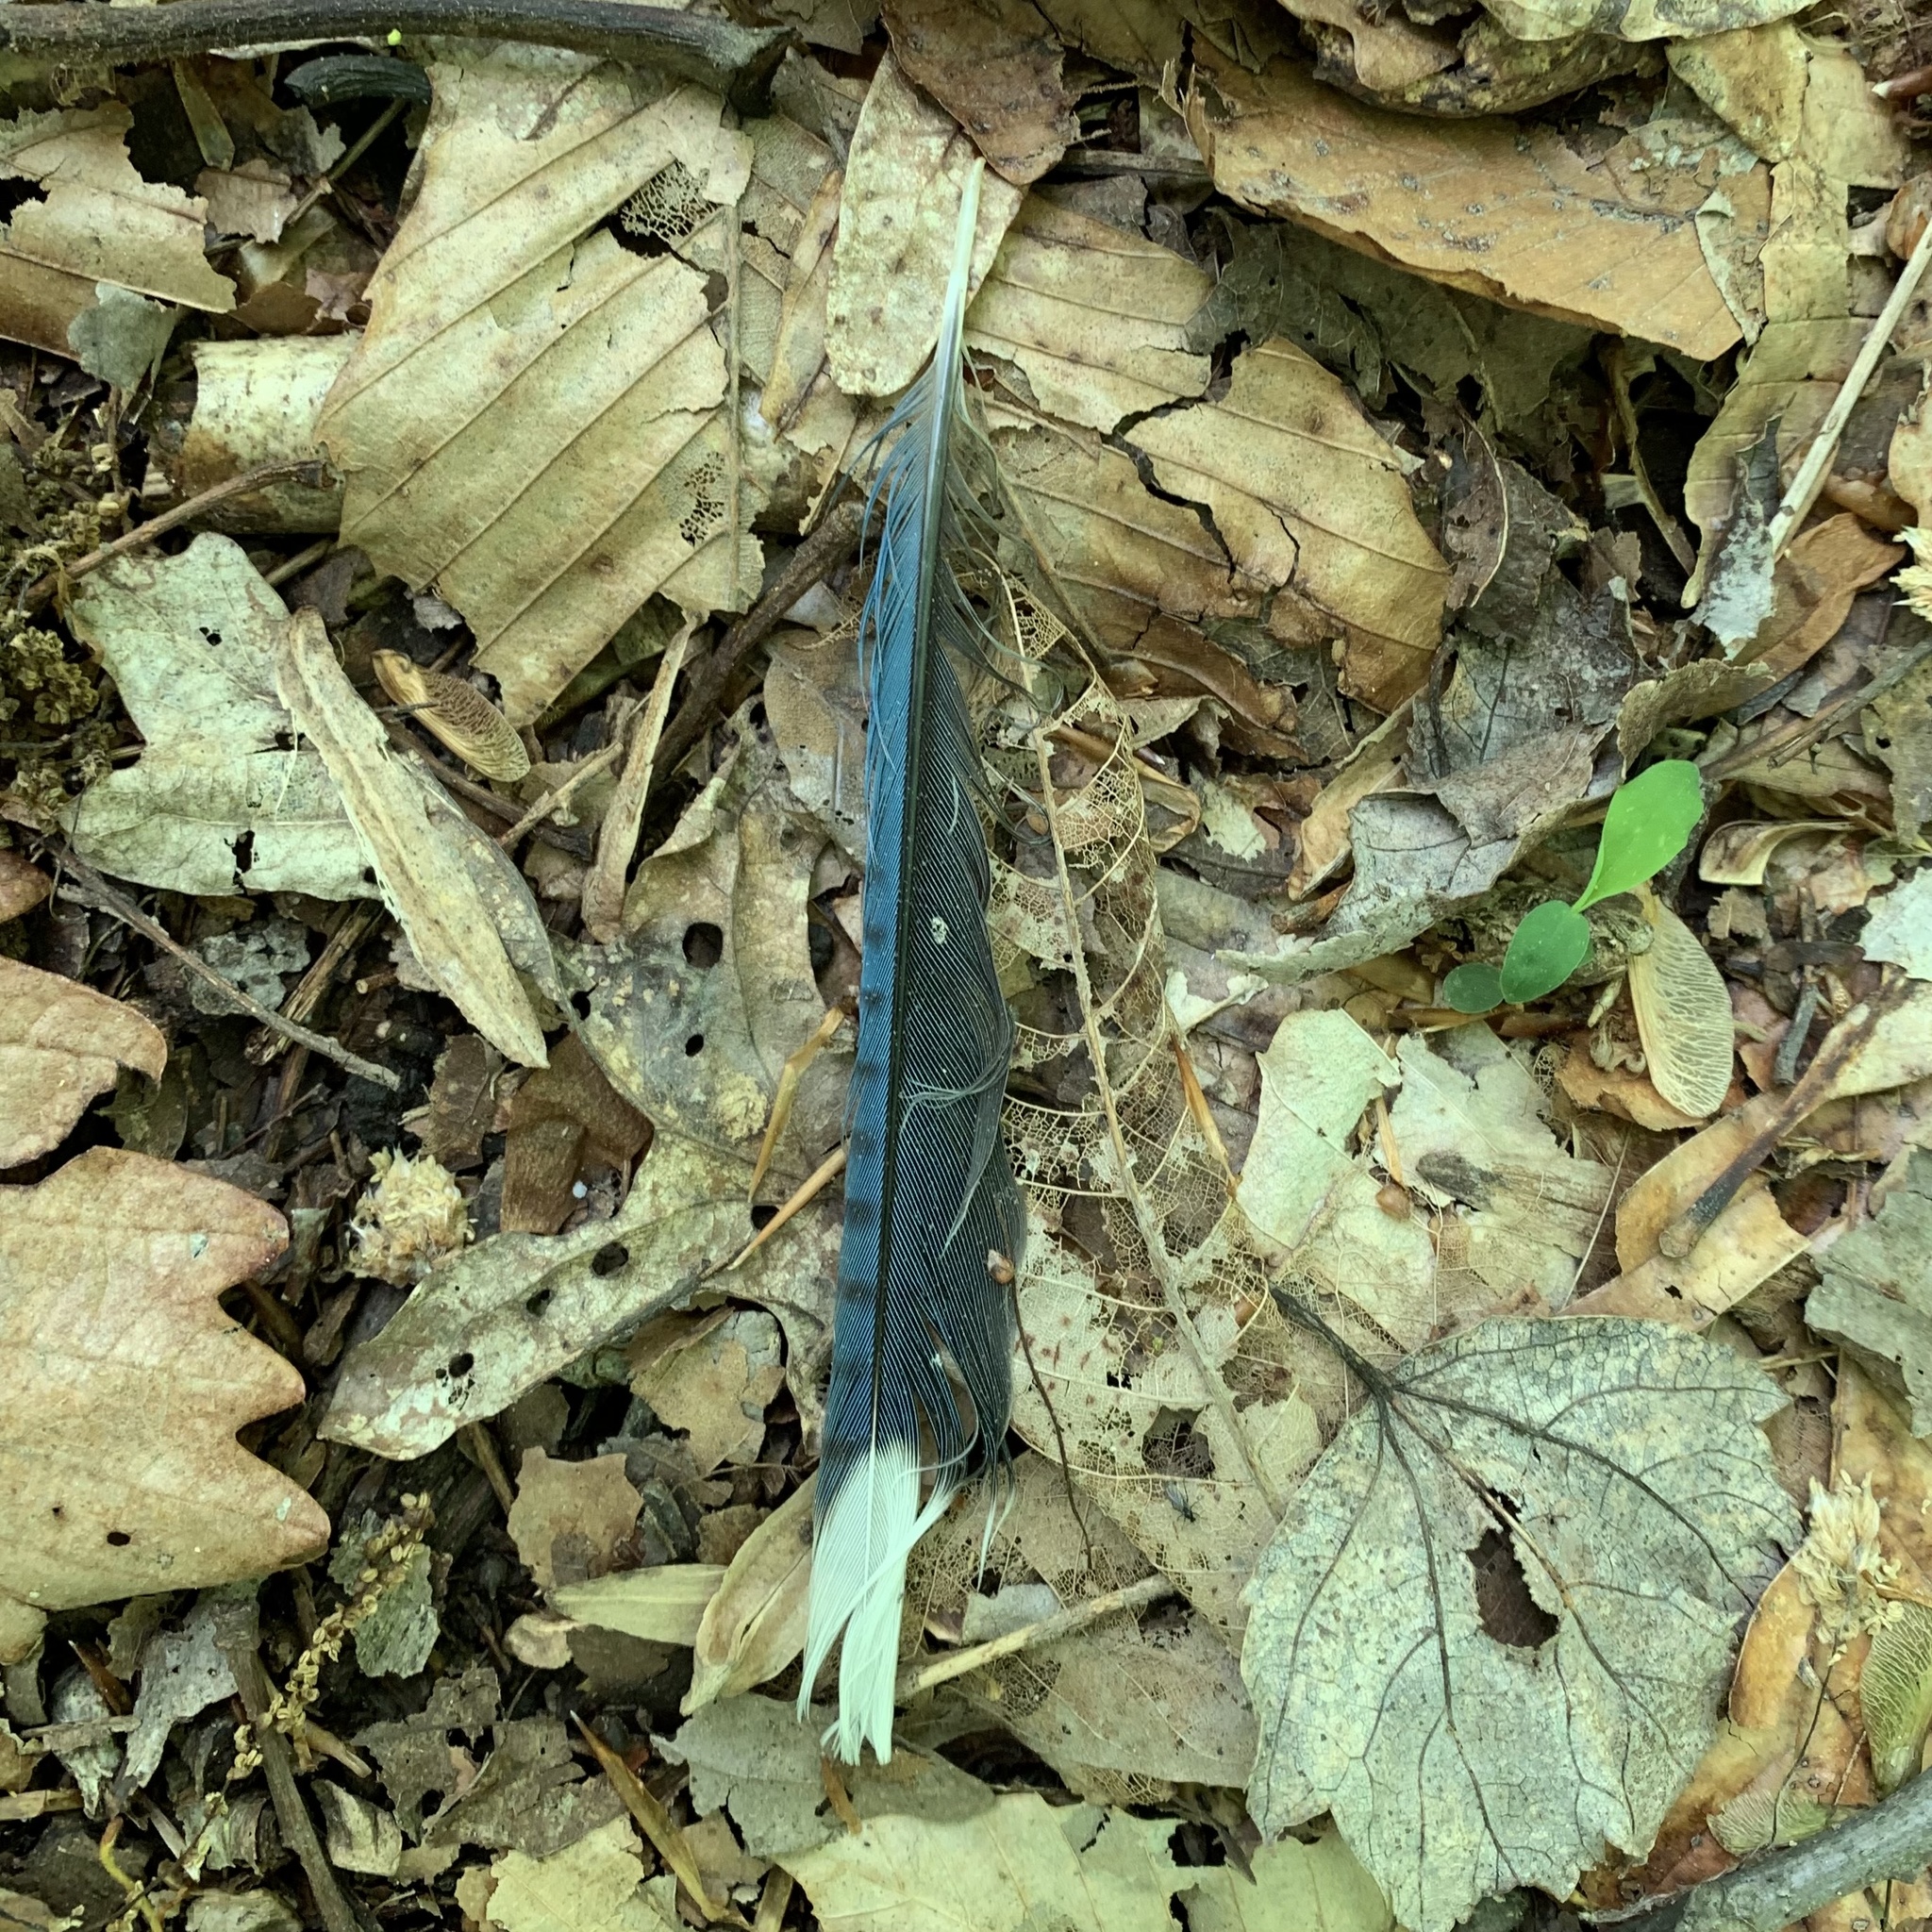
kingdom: Animalia
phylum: Chordata
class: Aves
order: Passeriformes
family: Corvidae
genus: Cyanocitta
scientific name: Cyanocitta cristata
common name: Blue jay
